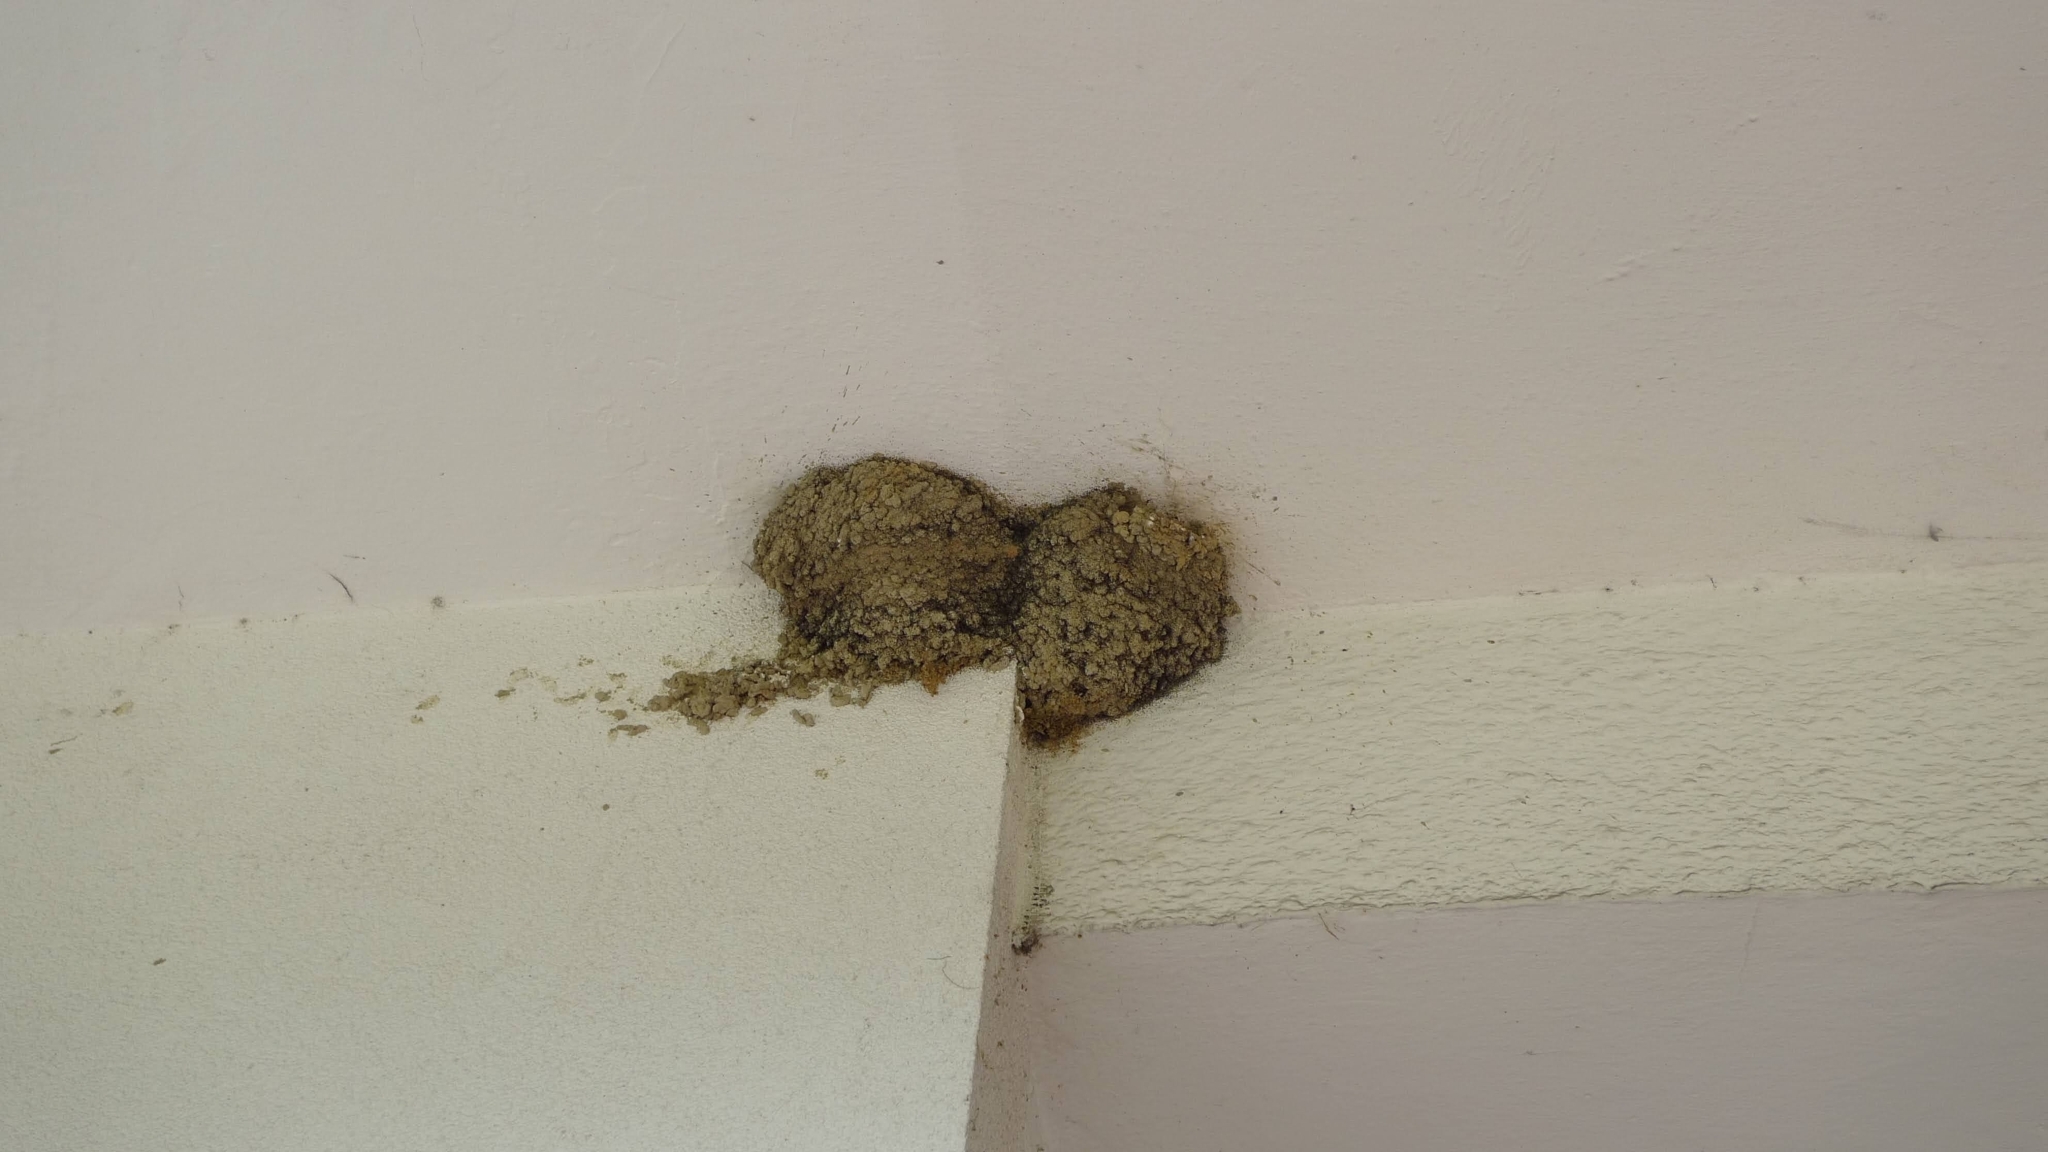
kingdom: Animalia
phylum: Chordata
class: Aves
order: Passeriformes
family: Hirundinidae
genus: Delichon
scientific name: Delichon urbicum
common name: Common house martin
